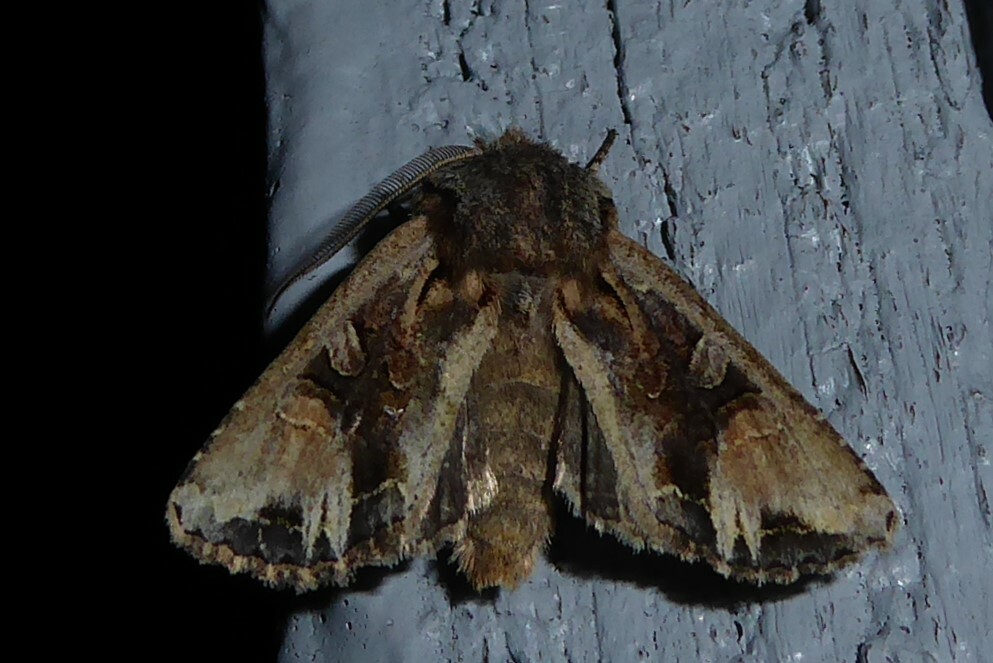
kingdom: Animalia
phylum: Arthropoda
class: Insecta
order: Lepidoptera
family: Noctuidae
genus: Ichneutica
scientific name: Ichneutica
